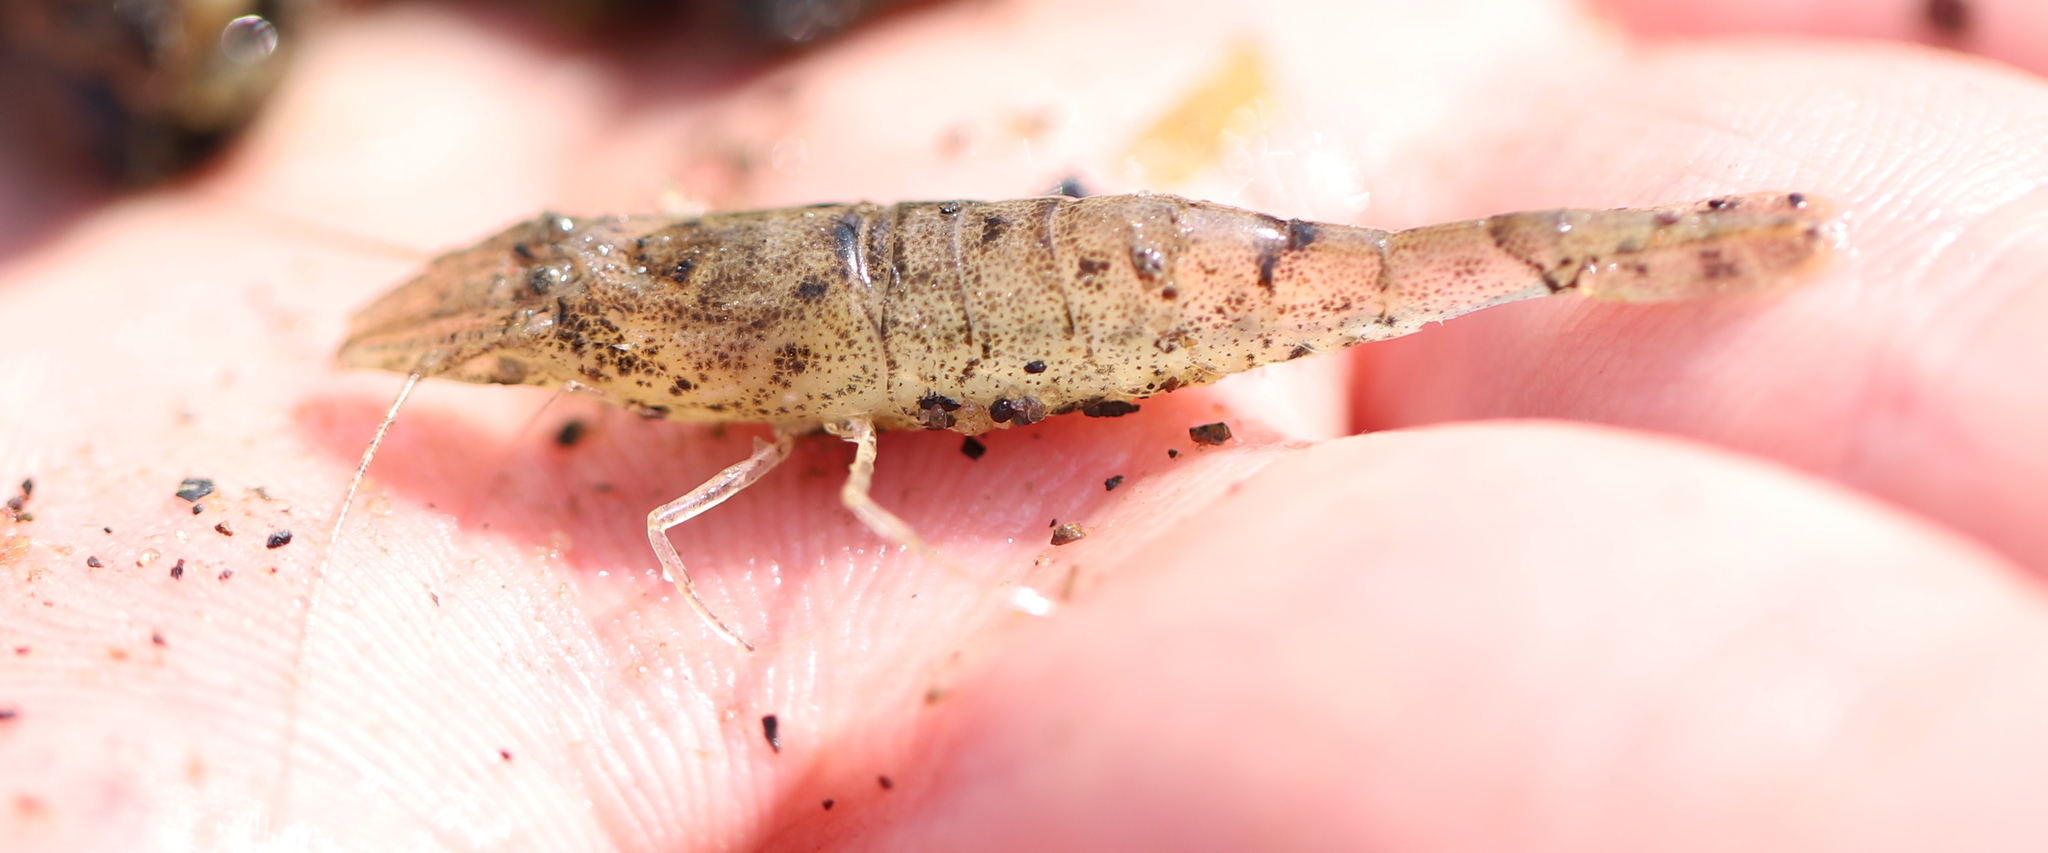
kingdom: Animalia
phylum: Arthropoda
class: Malacostraca
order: Decapoda
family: Crangonidae
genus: Crangon
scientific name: Crangon septemspinosa
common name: Bail shrimp
